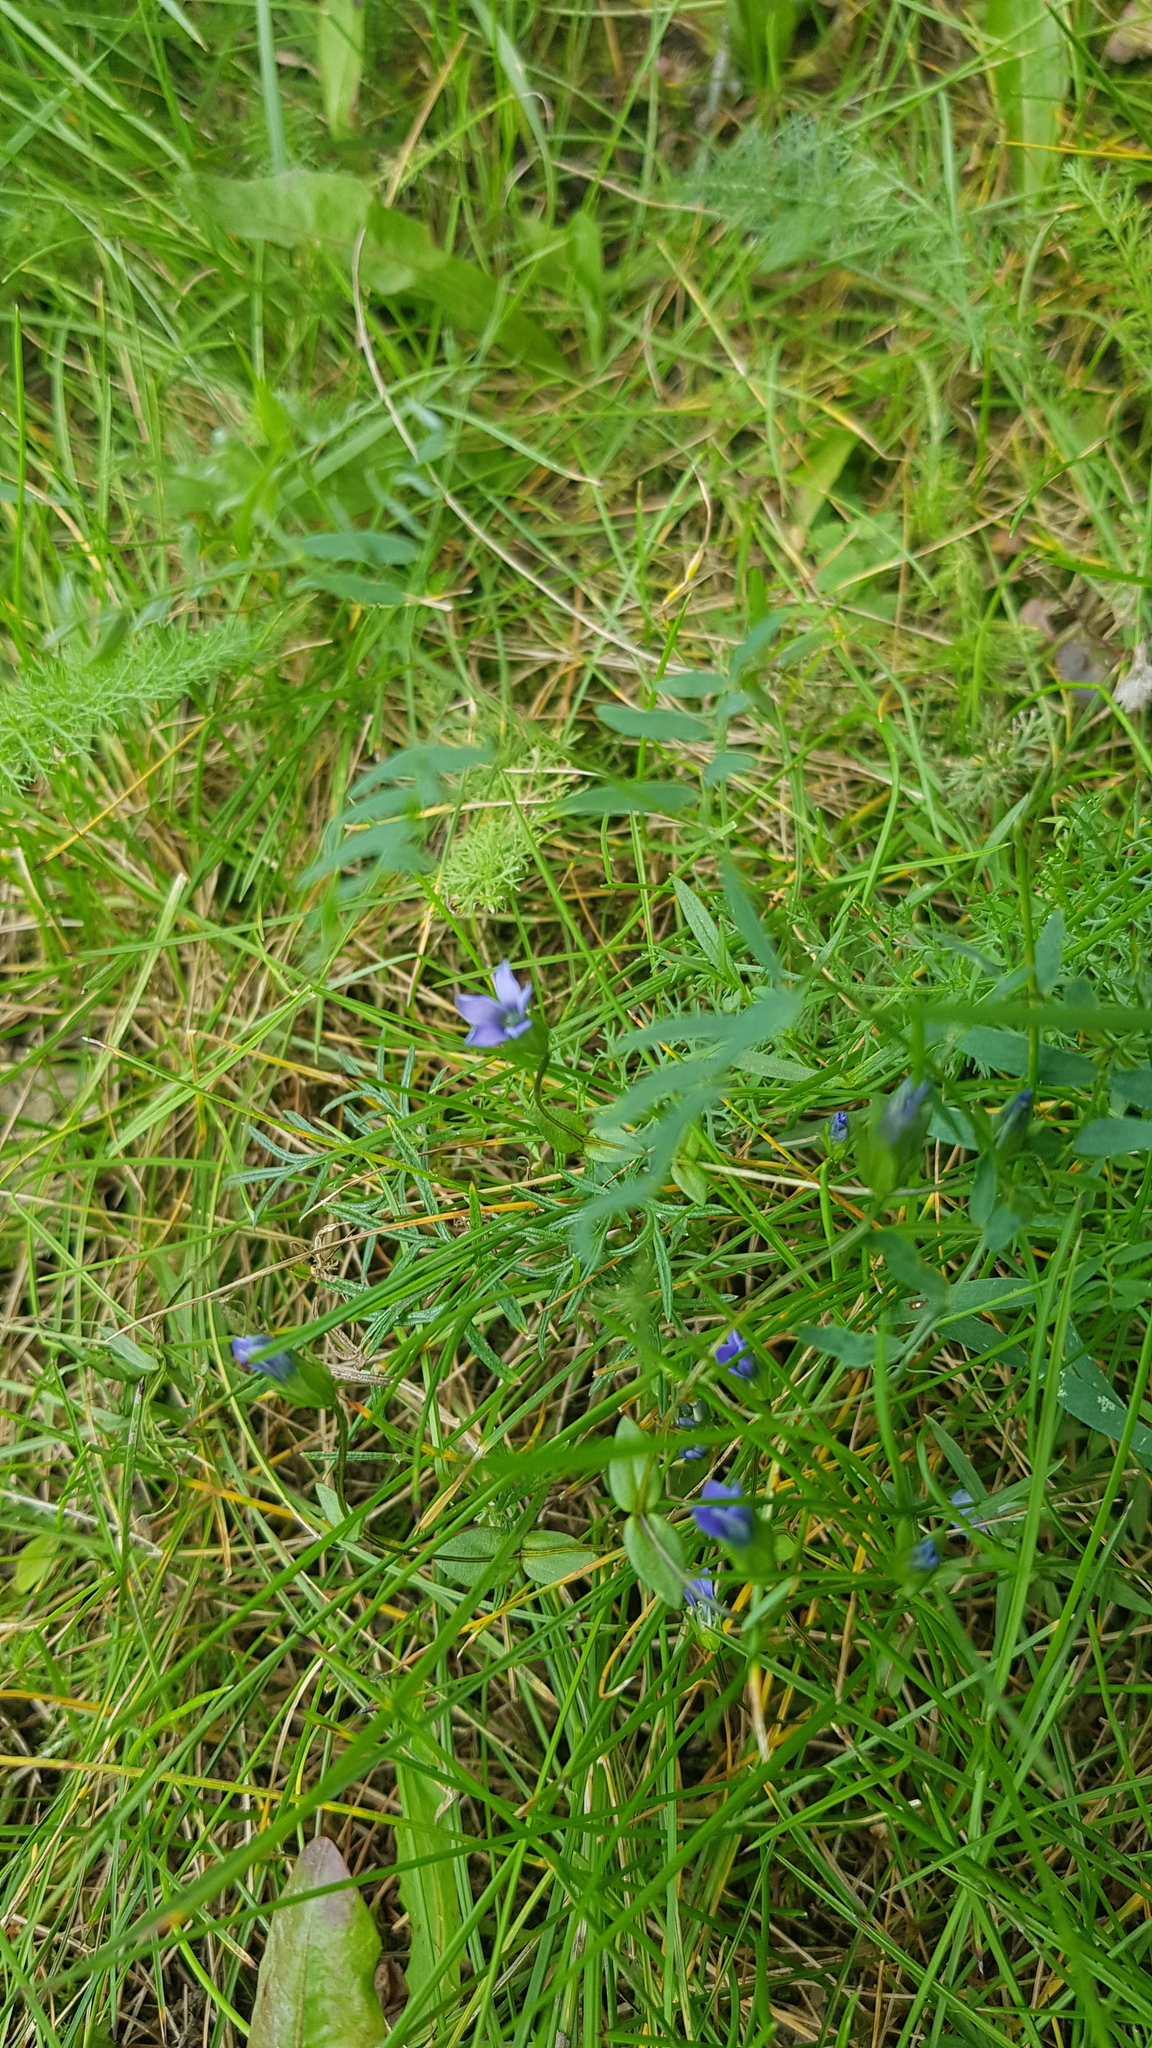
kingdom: Plantae
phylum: Tracheophyta
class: Magnoliopsida
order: Gentianales
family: Gentianaceae
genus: Gentiana
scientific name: Gentiana squarrosa
